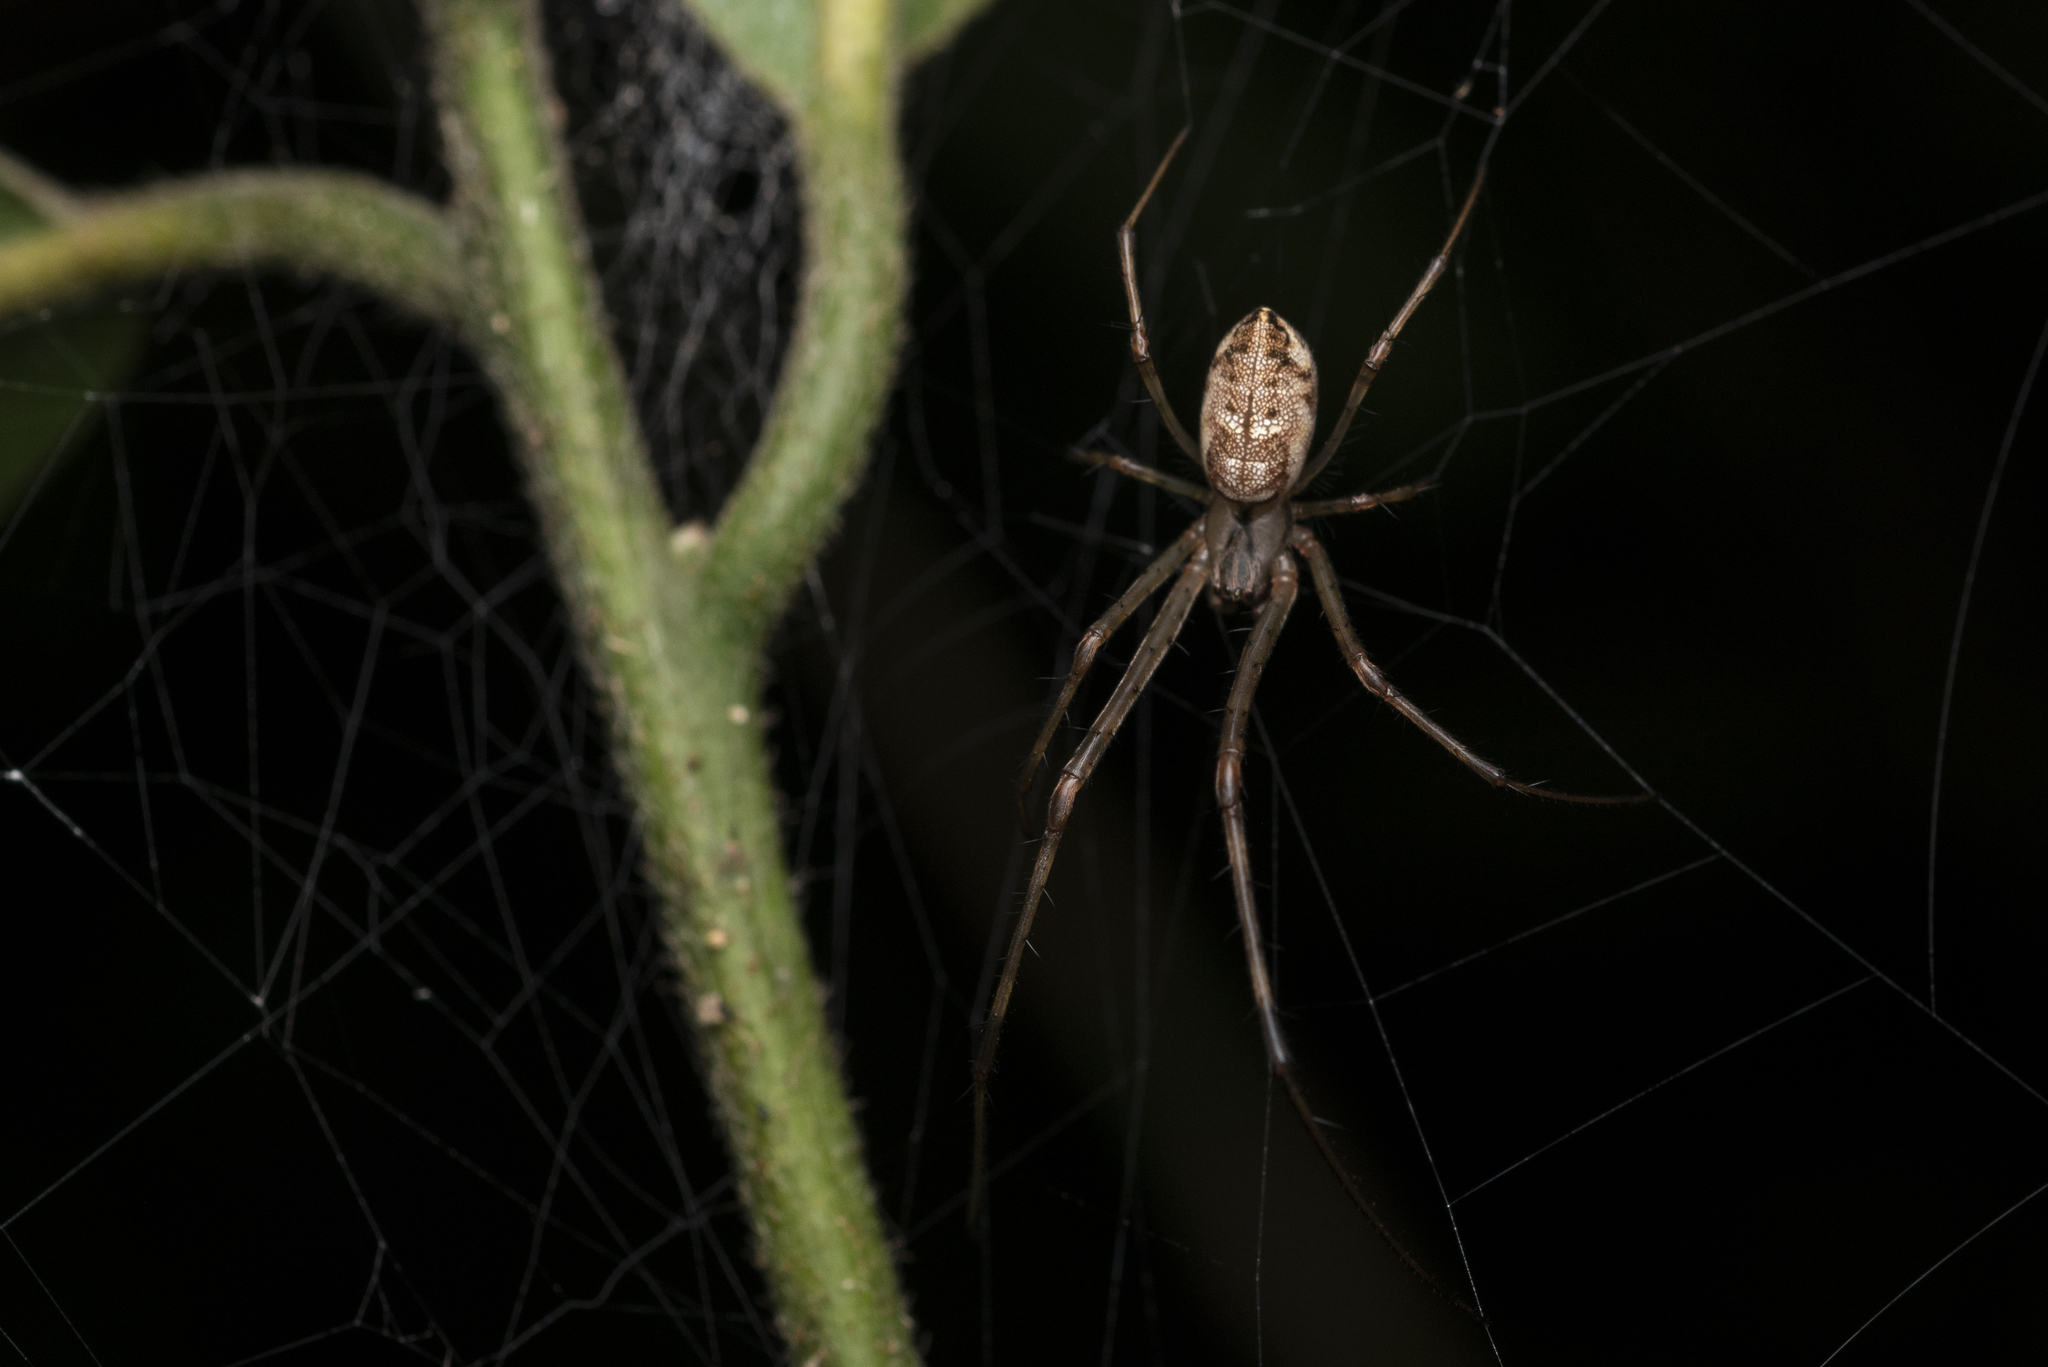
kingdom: Animalia
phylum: Arthropoda
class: Arachnida
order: Araneae
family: Tetragnathidae
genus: Tylorida
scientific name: Tylorida ventralis
